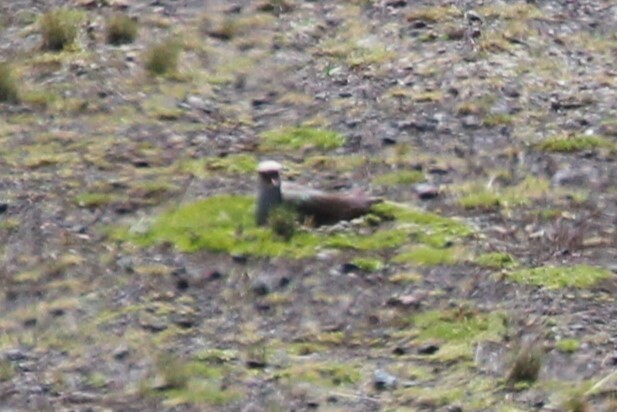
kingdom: Animalia
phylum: Chordata
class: Aves
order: Charadriiformes
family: Charadriidae
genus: Vanellus
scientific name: Vanellus resplendens
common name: Andean lapwing
